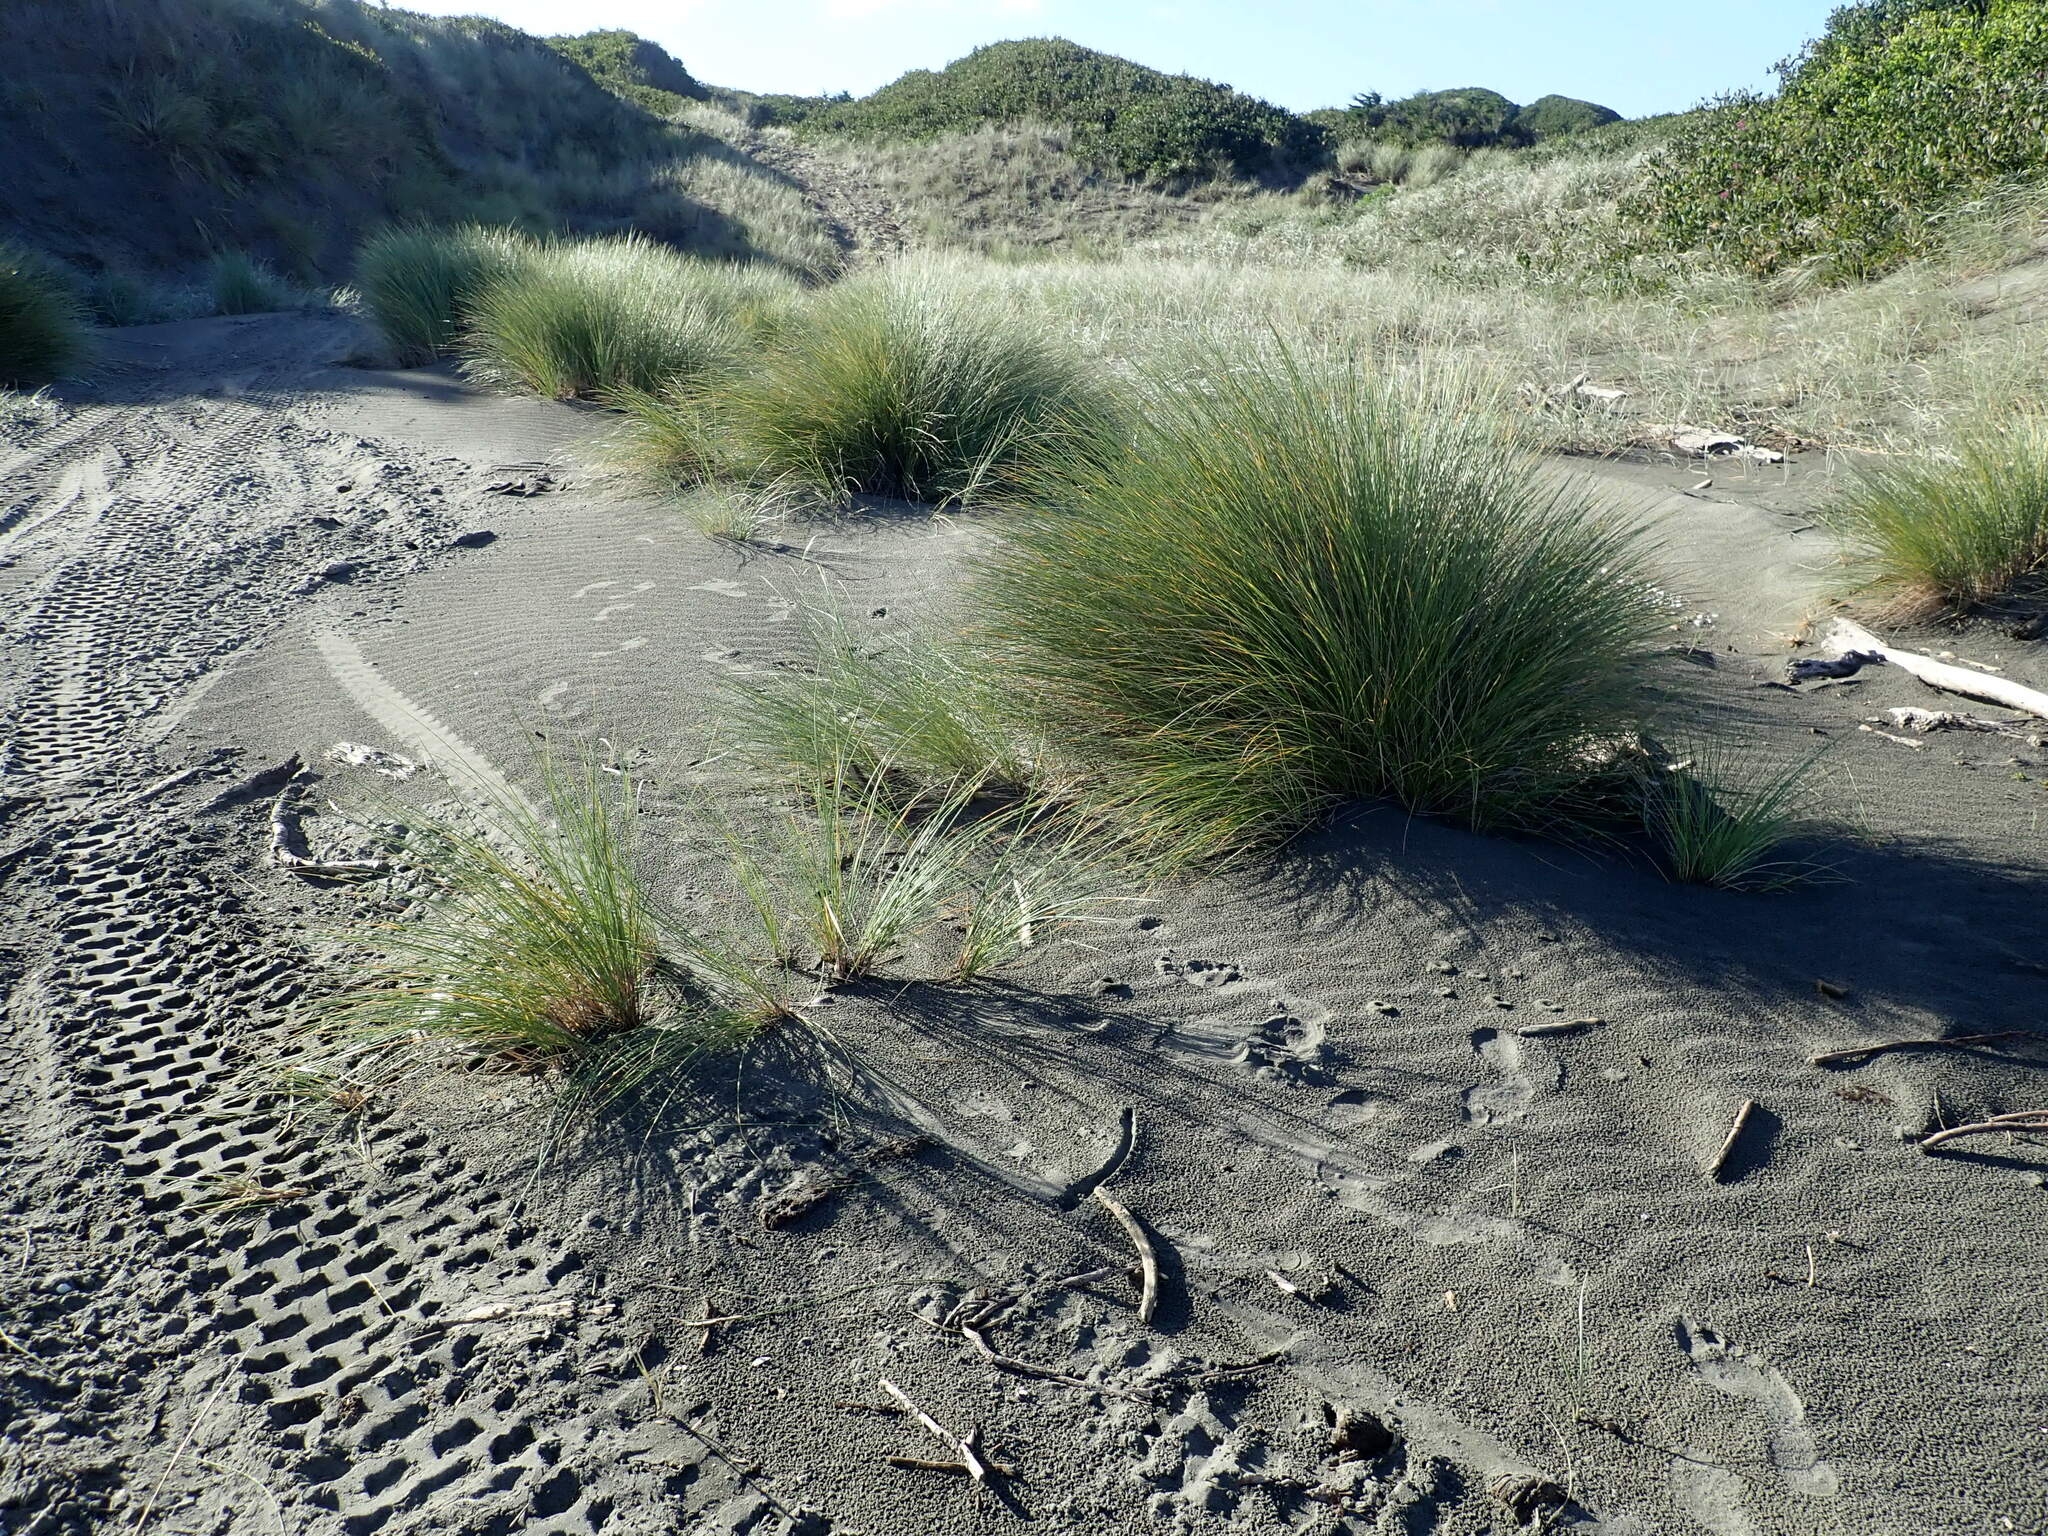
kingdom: Plantae
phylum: Tracheophyta
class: Liliopsida
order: Poales
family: Poaceae
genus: Calamagrostis
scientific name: Calamagrostis arenaria
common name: European beachgrass
